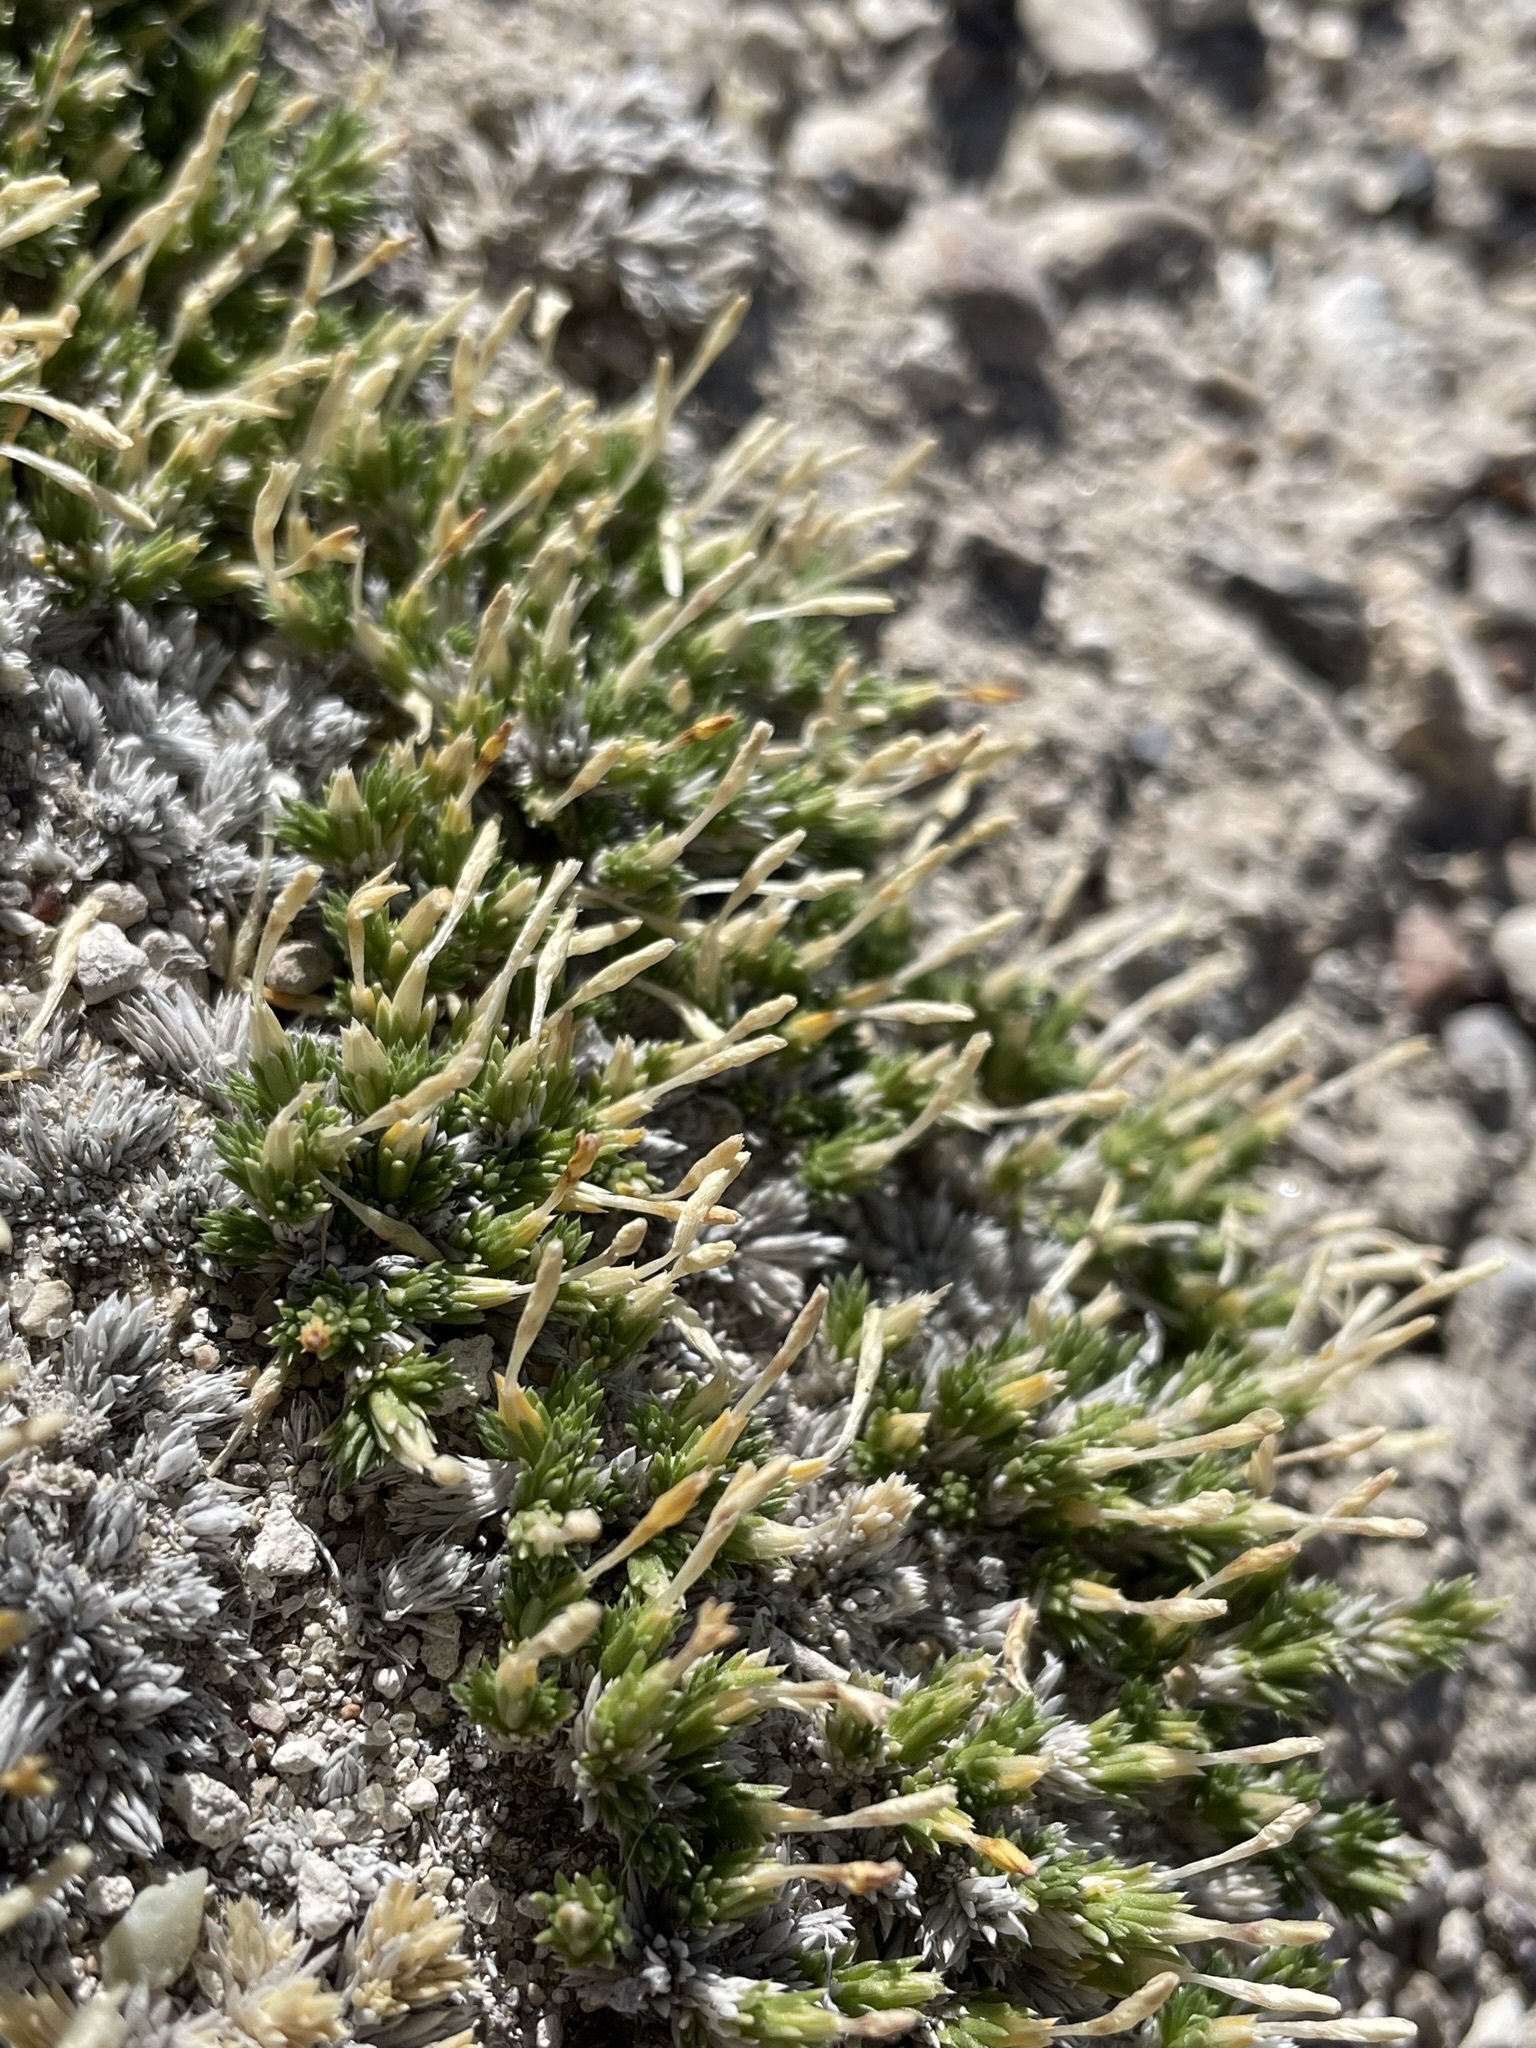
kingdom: Plantae
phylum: Tracheophyta
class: Magnoliopsida
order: Ericales
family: Polemoniaceae
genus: Linanthus
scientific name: Linanthus caespitosus
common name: Mat prickly phlox
